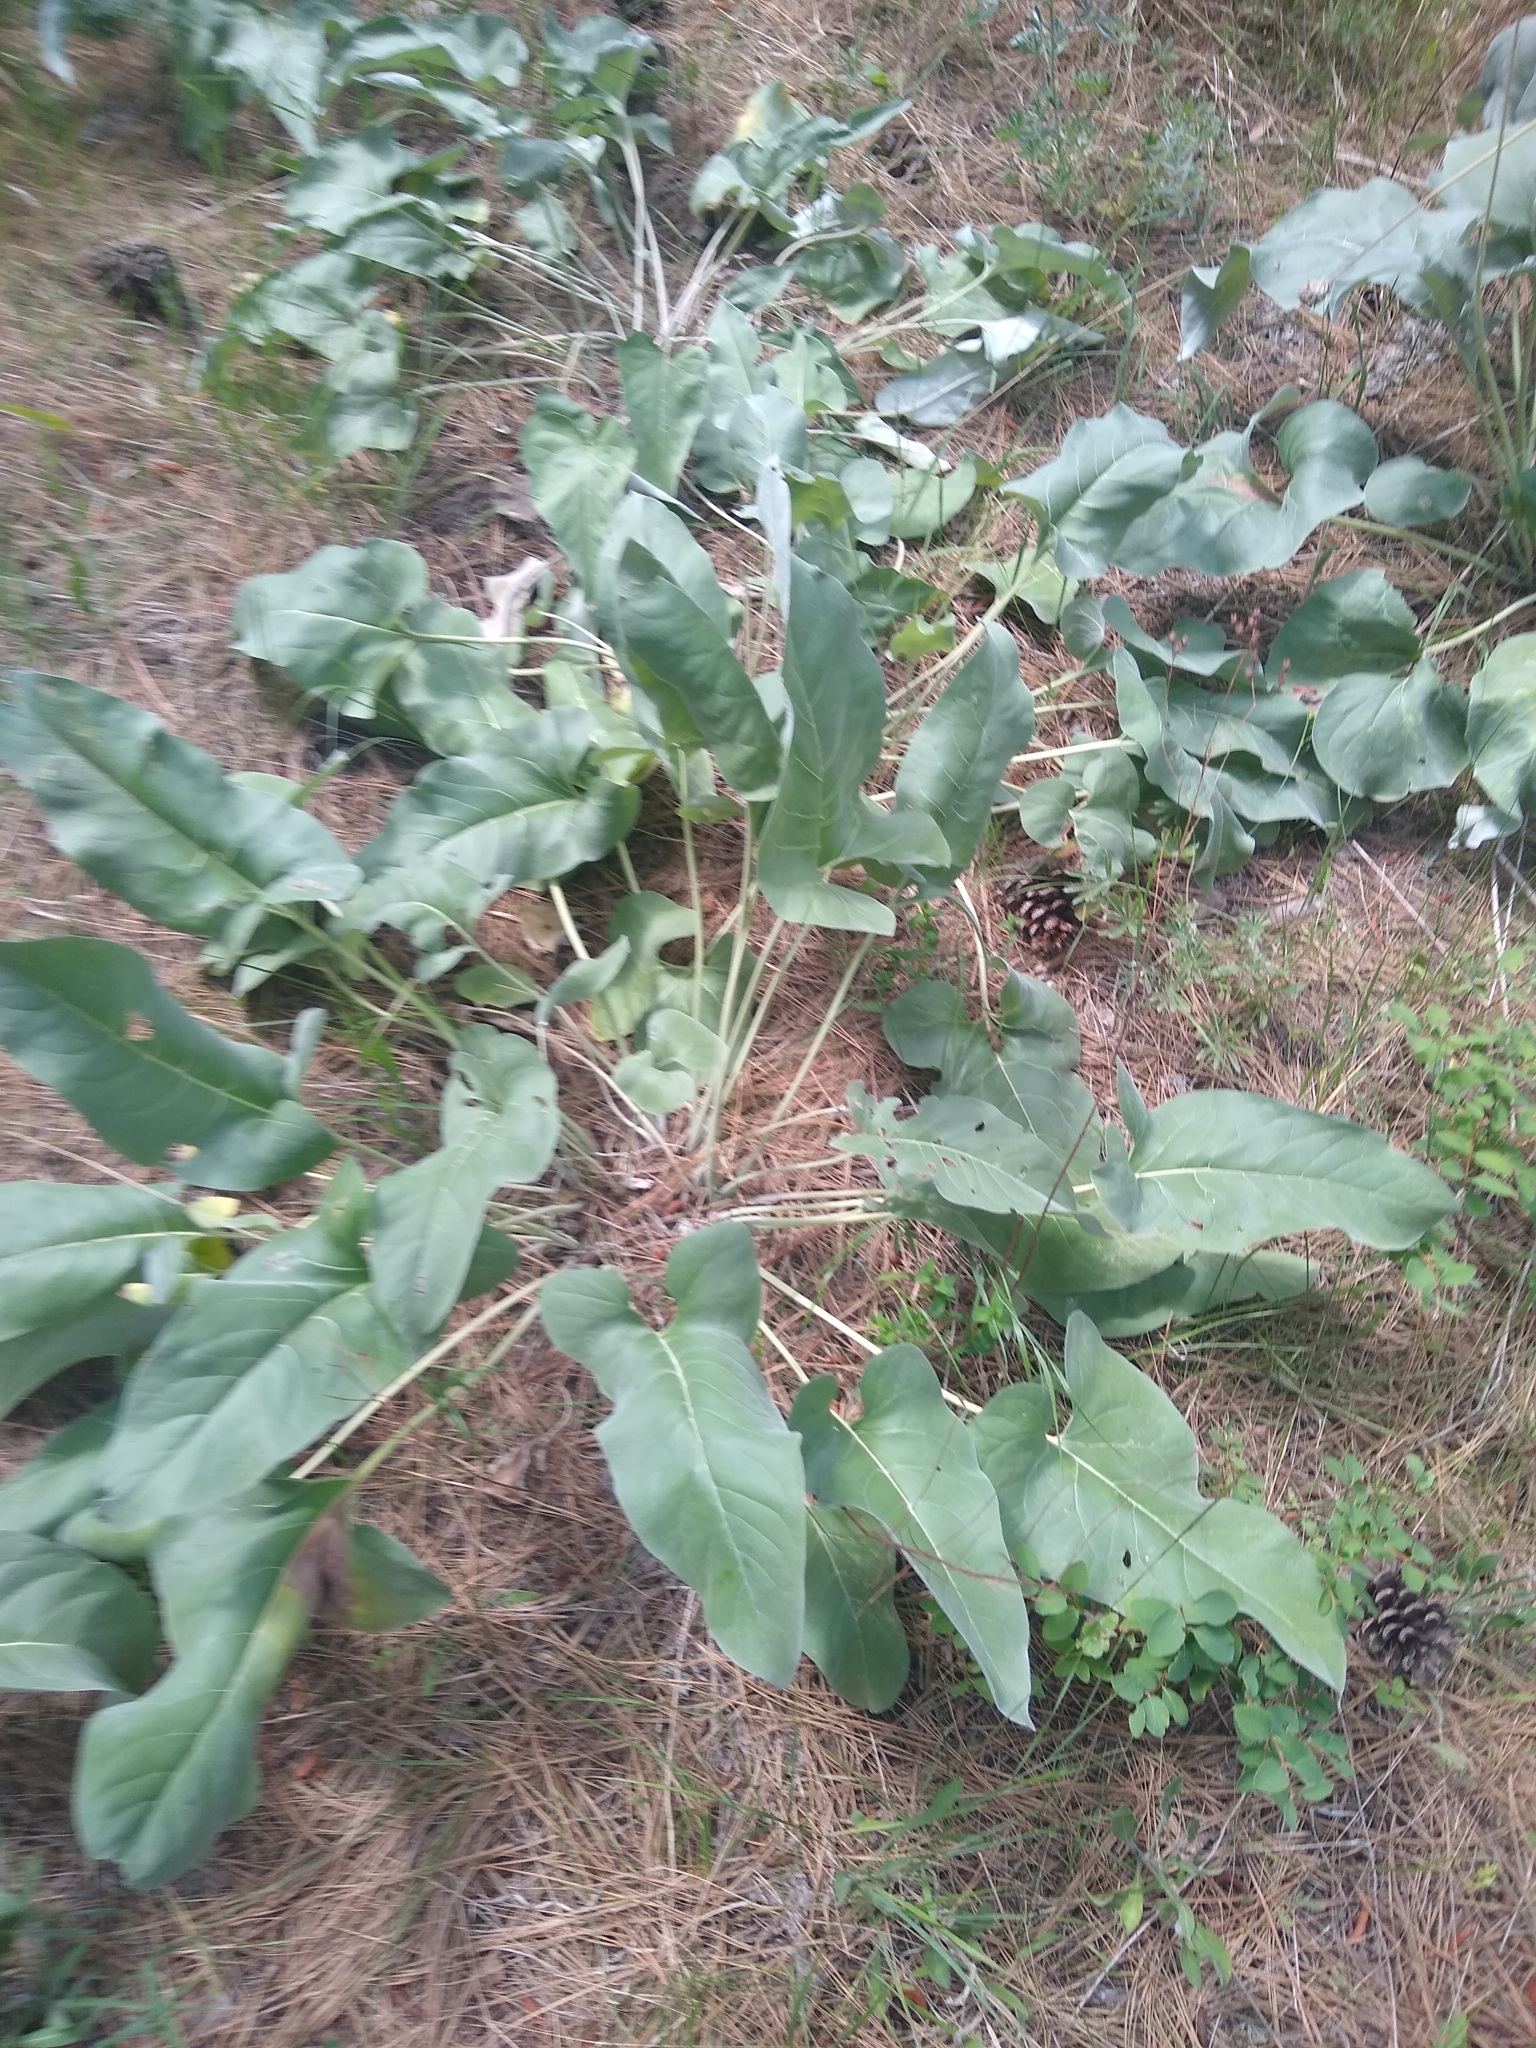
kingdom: Plantae
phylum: Tracheophyta
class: Magnoliopsida
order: Asterales
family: Asteraceae
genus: Wyethia
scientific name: Wyethia sagittata
